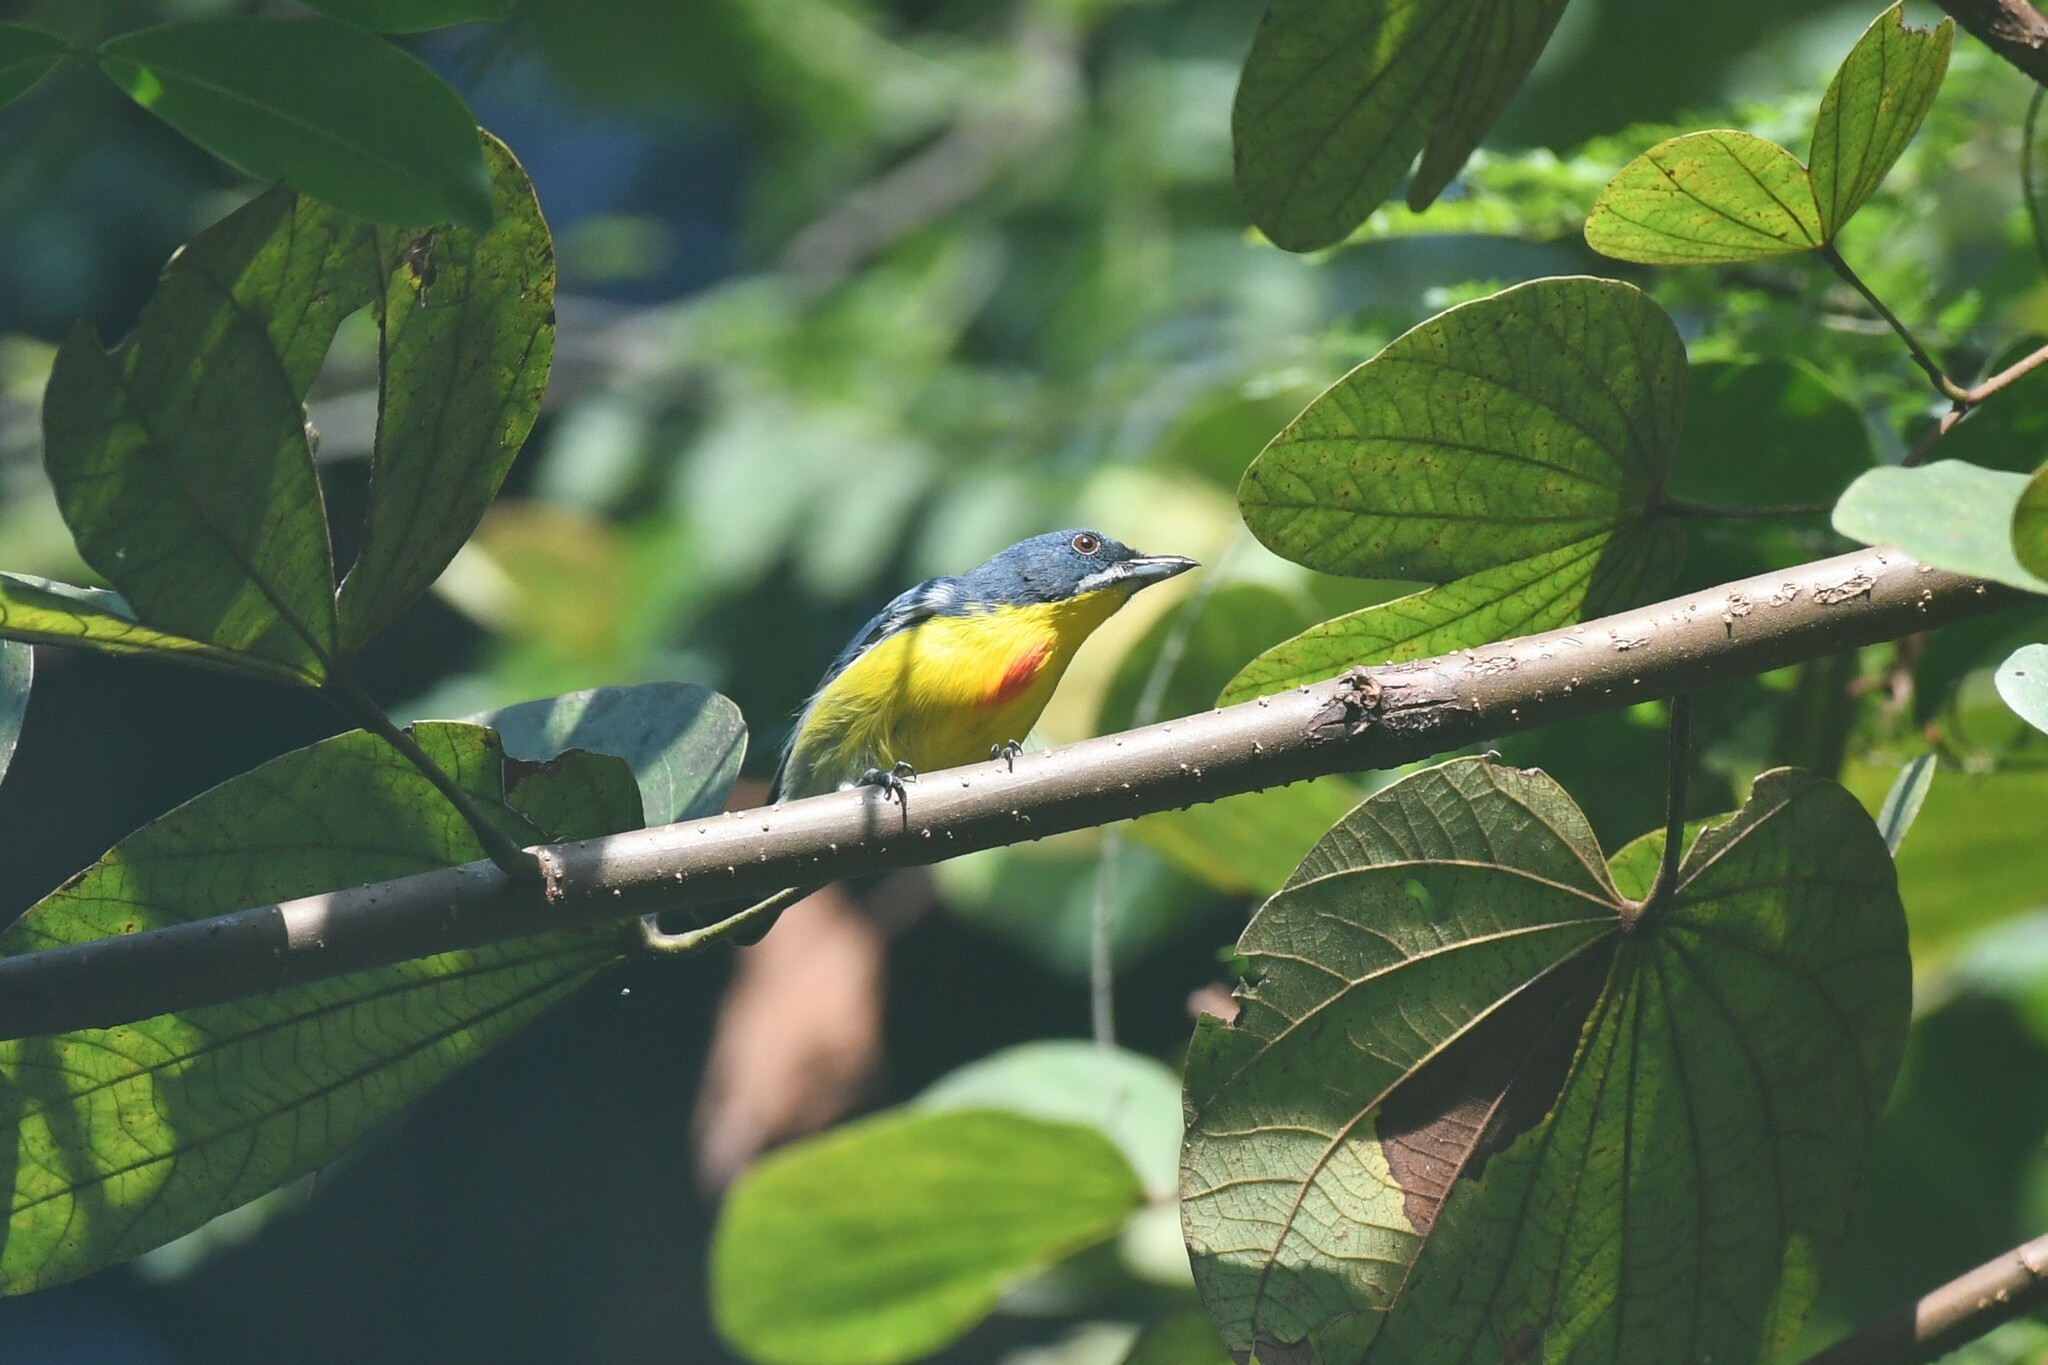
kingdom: Animalia
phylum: Chordata
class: Aves
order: Passeriformes
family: Dicaeidae
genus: Prionochilus
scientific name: Prionochilus percussus
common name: Crimson-breasted flowerpecker
